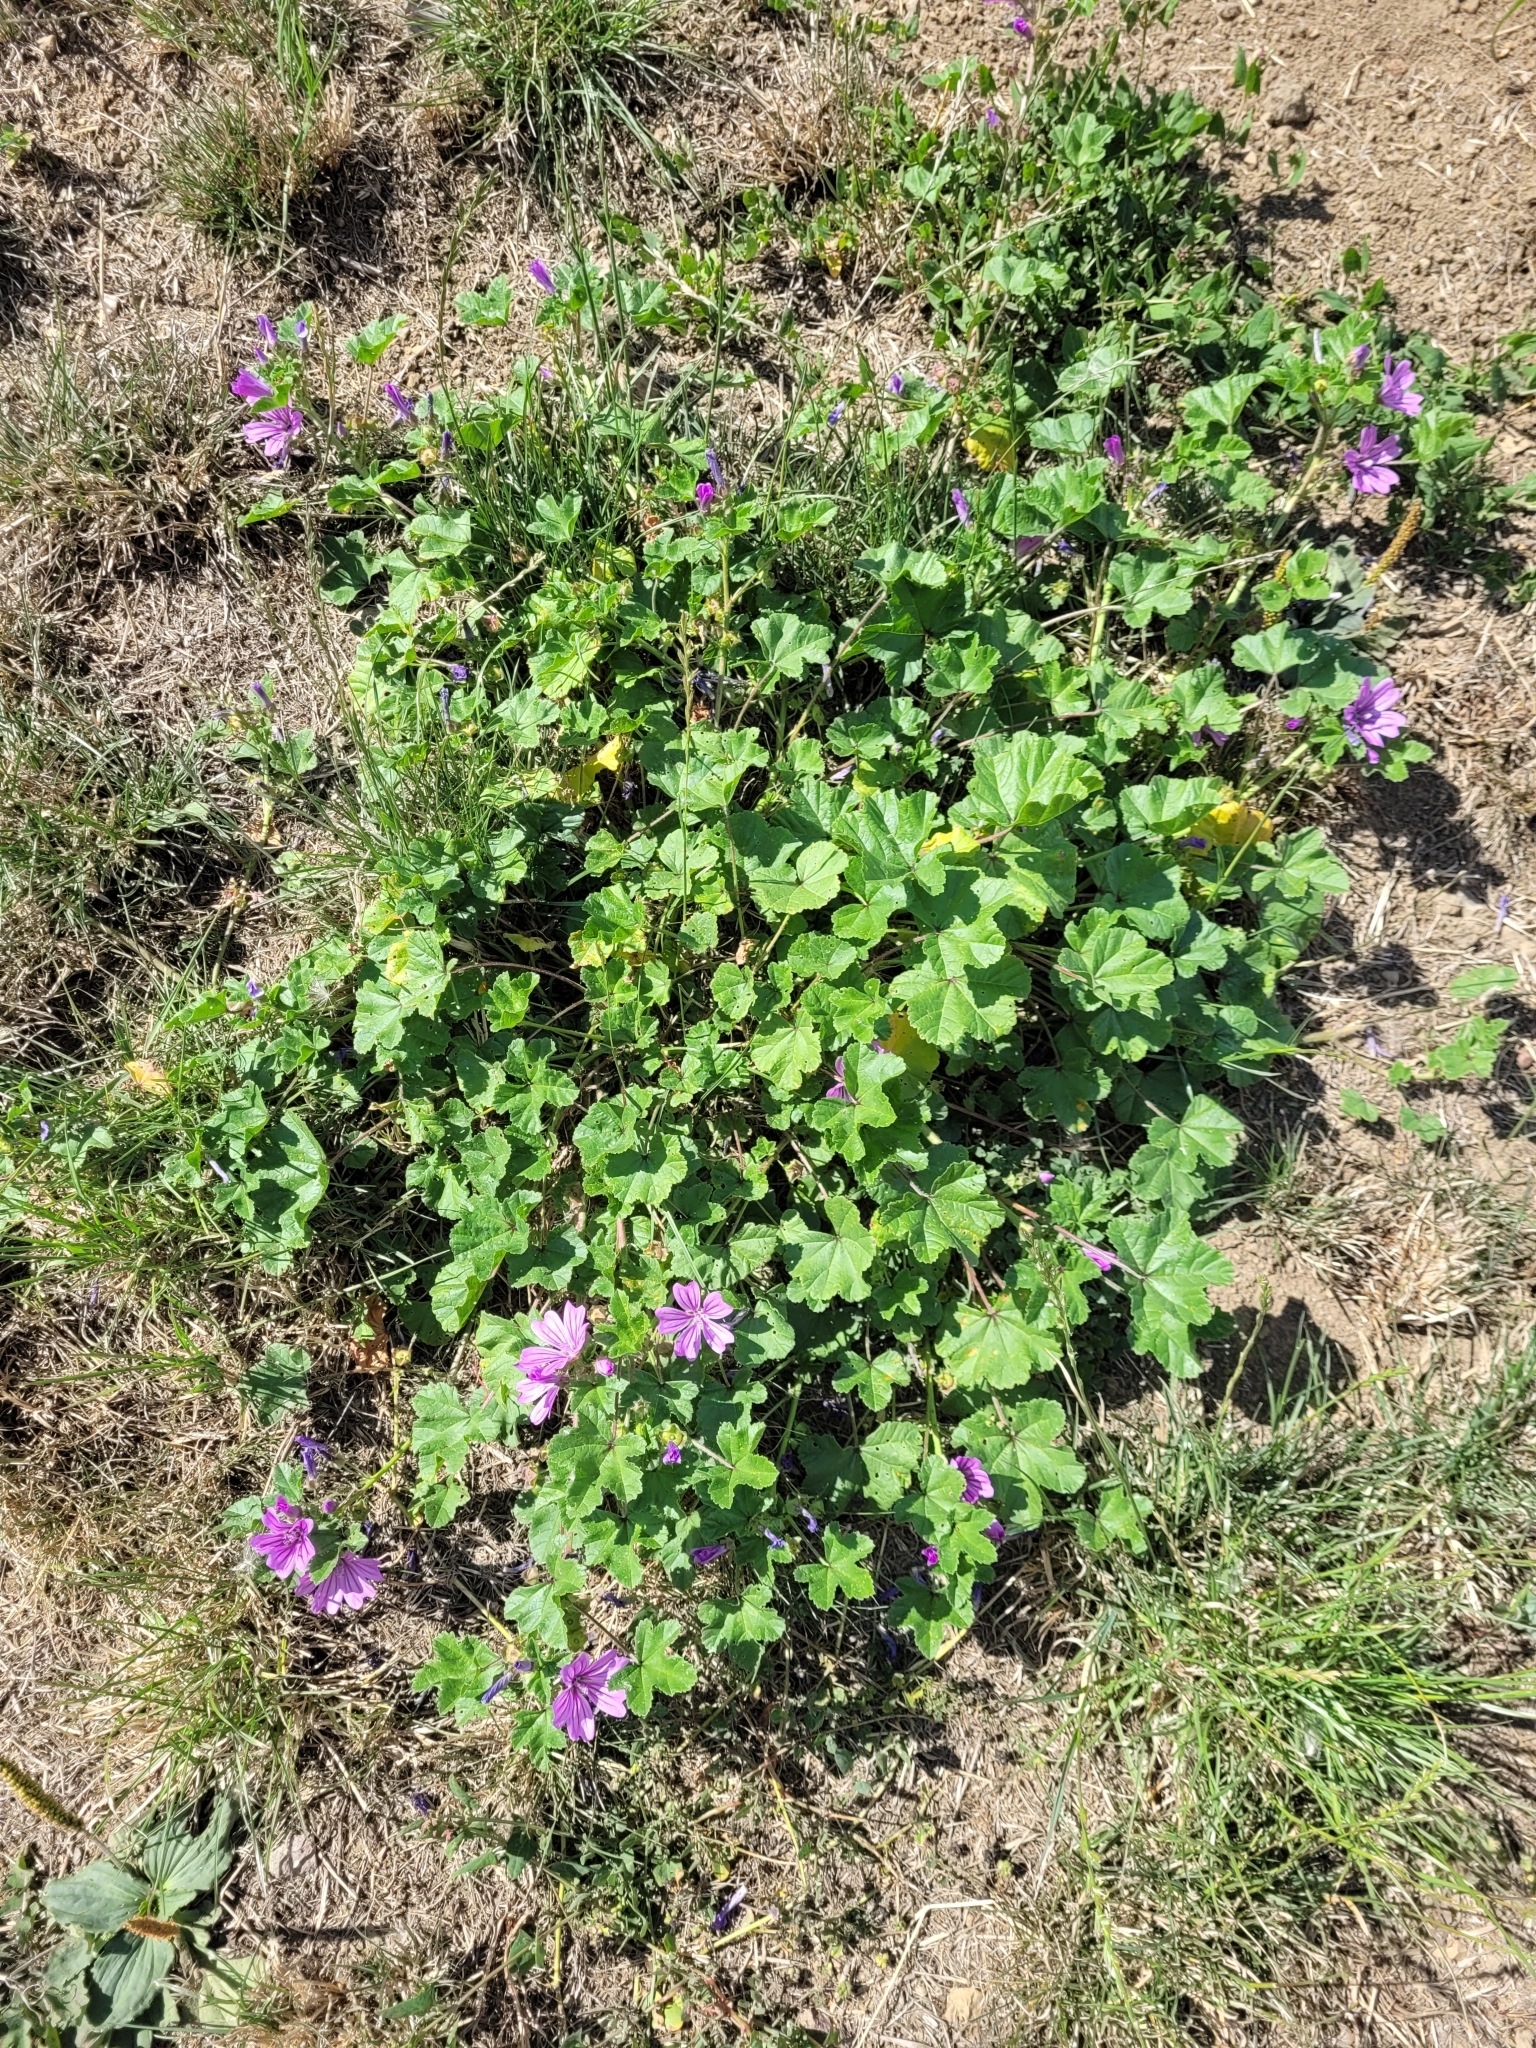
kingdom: Plantae
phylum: Tracheophyta
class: Magnoliopsida
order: Malvales
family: Malvaceae
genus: Malva
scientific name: Malva sylvestris
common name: Common mallow
